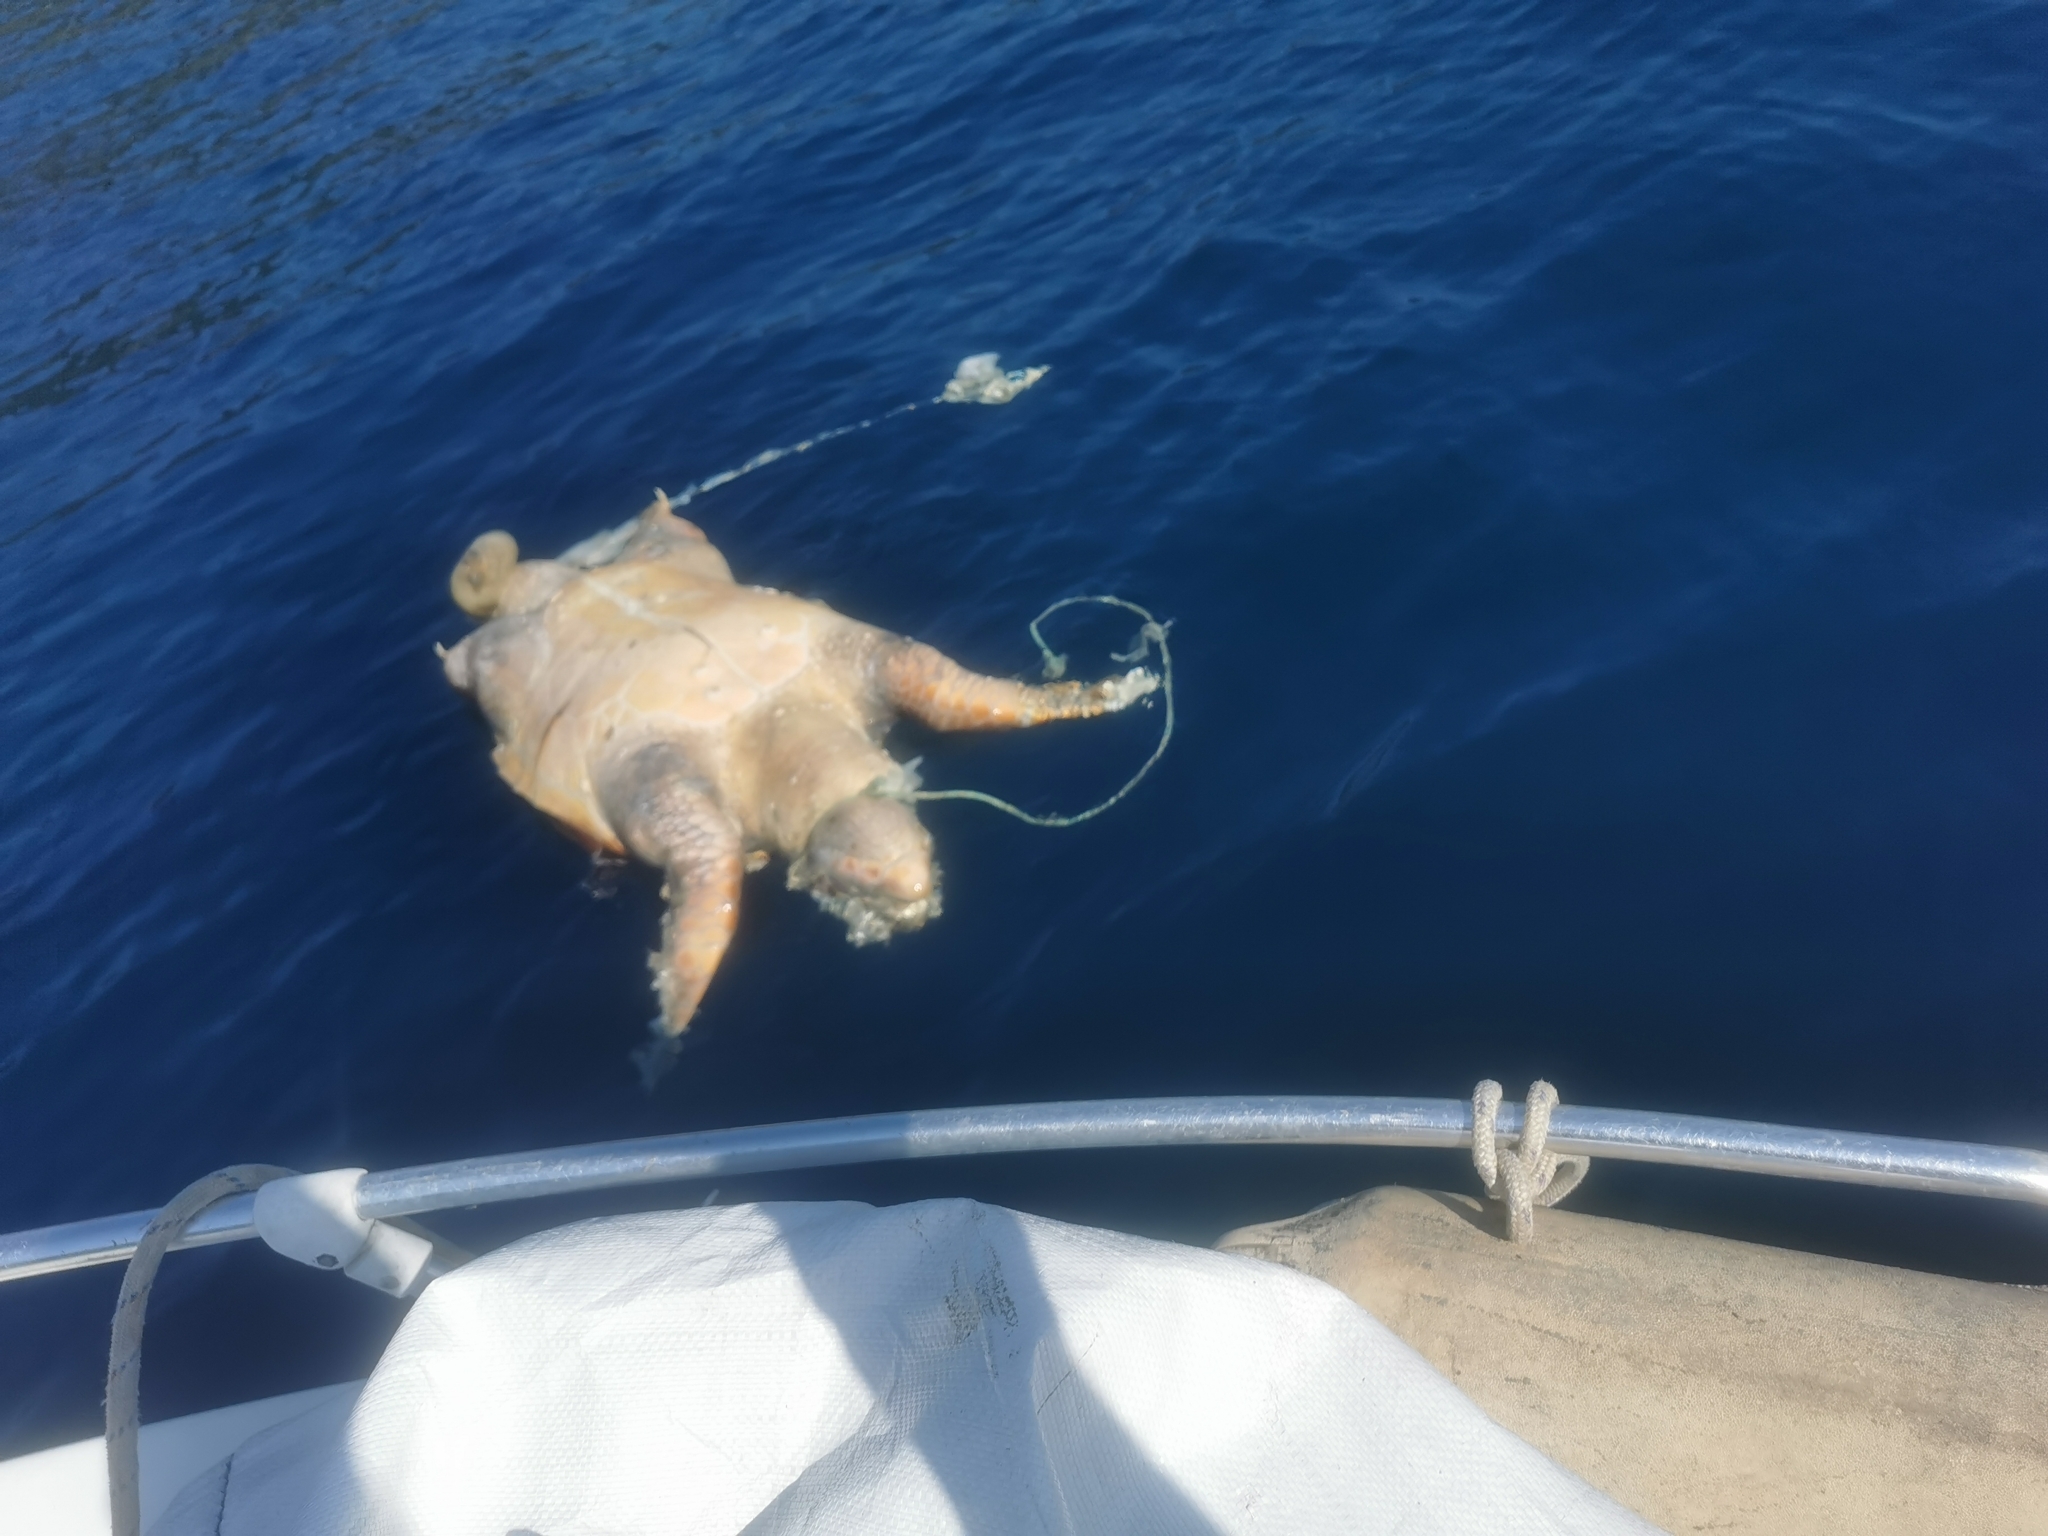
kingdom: Animalia
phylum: Chordata
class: Testudines
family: Cheloniidae
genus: Caretta
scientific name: Caretta caretta
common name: Loggerhead sea turtle
